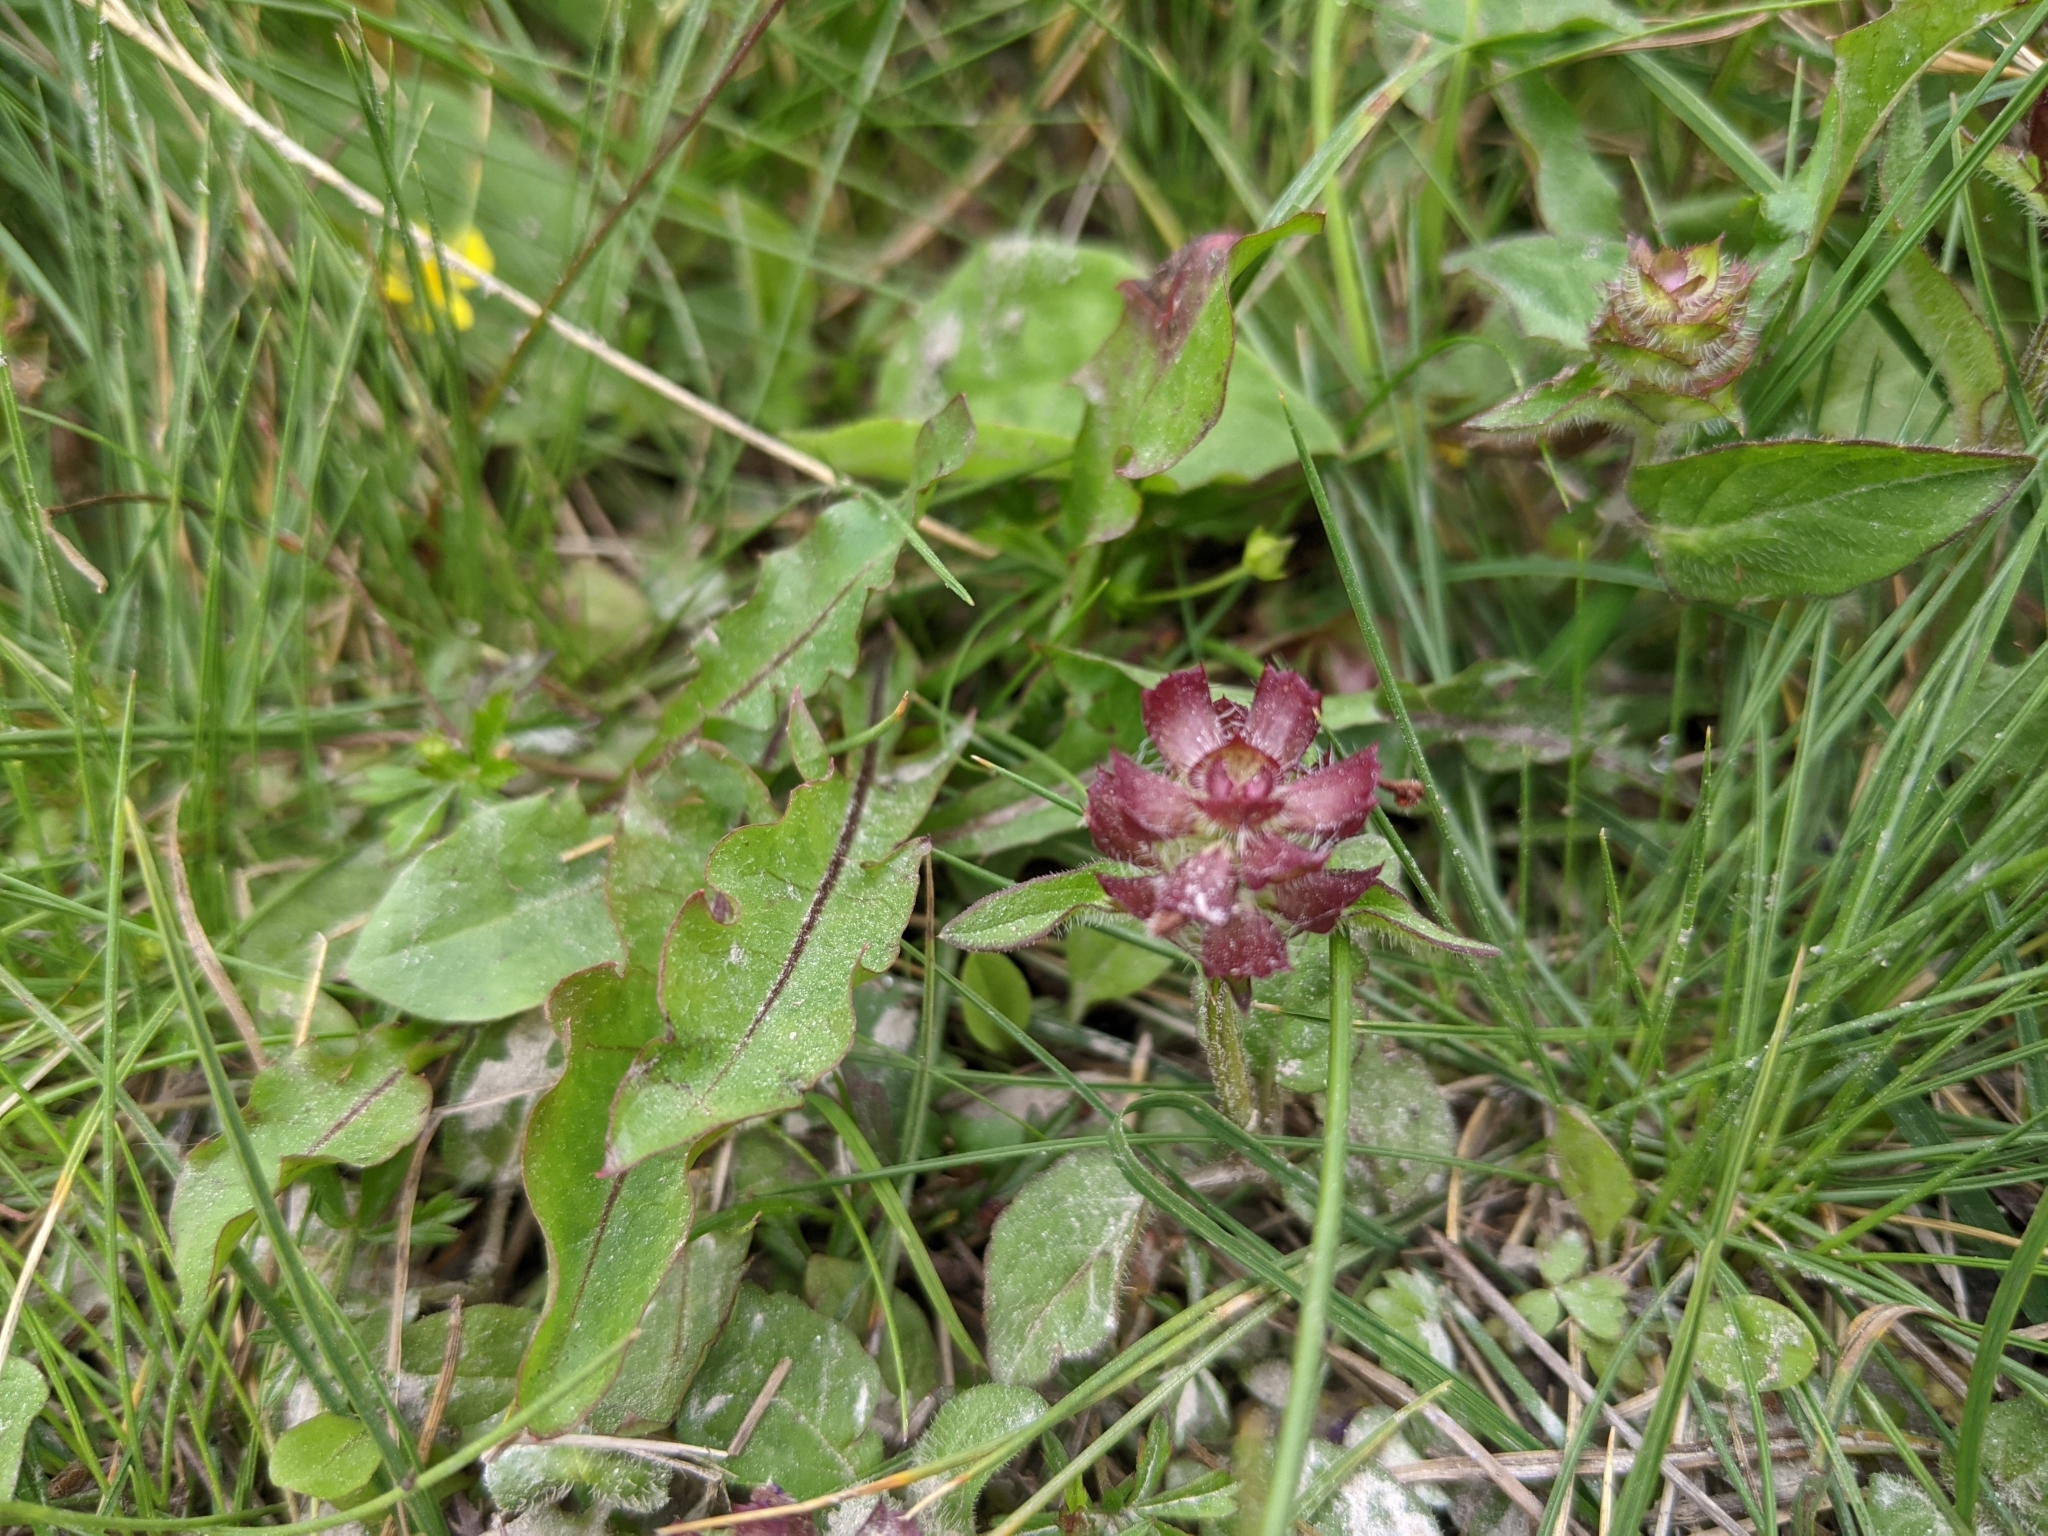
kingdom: Plantae
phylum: Tracheophyta
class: Magnoliopsida
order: Lamiales
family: Lamiaceae
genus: Prunella
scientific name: Prunella vulgaris
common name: Heal-all
